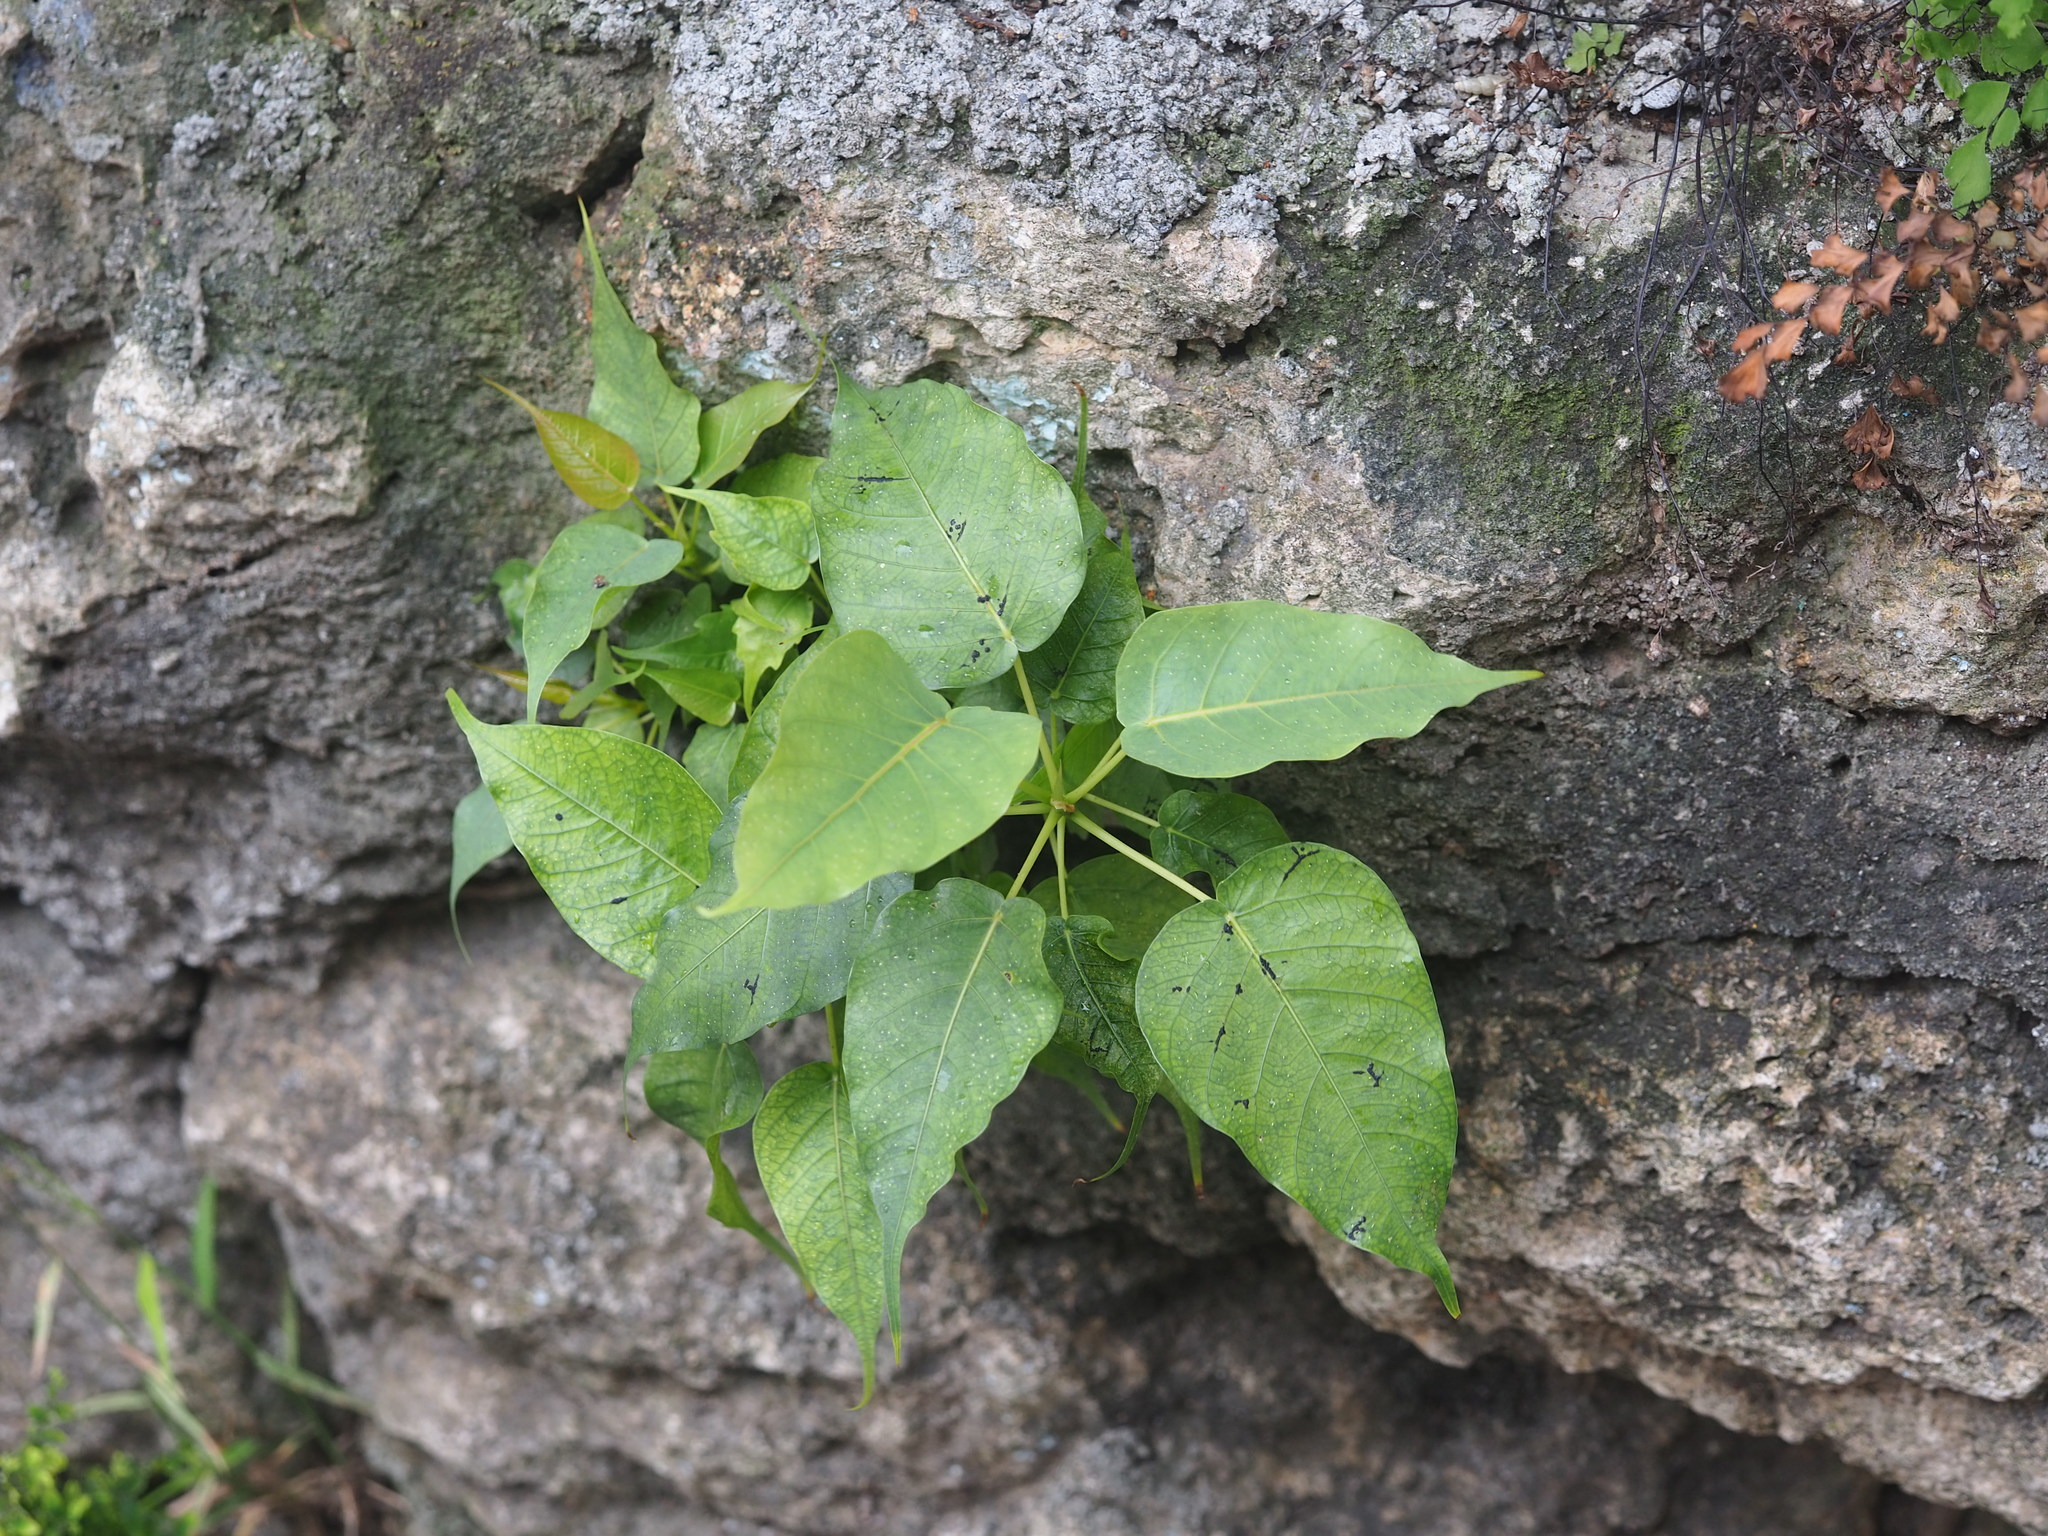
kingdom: Plantae
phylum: Tracheophyta
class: Magnoliopsida
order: Rosales
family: Moraceae
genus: Ficus
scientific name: Ficus religiosa
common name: Bodhi tree
